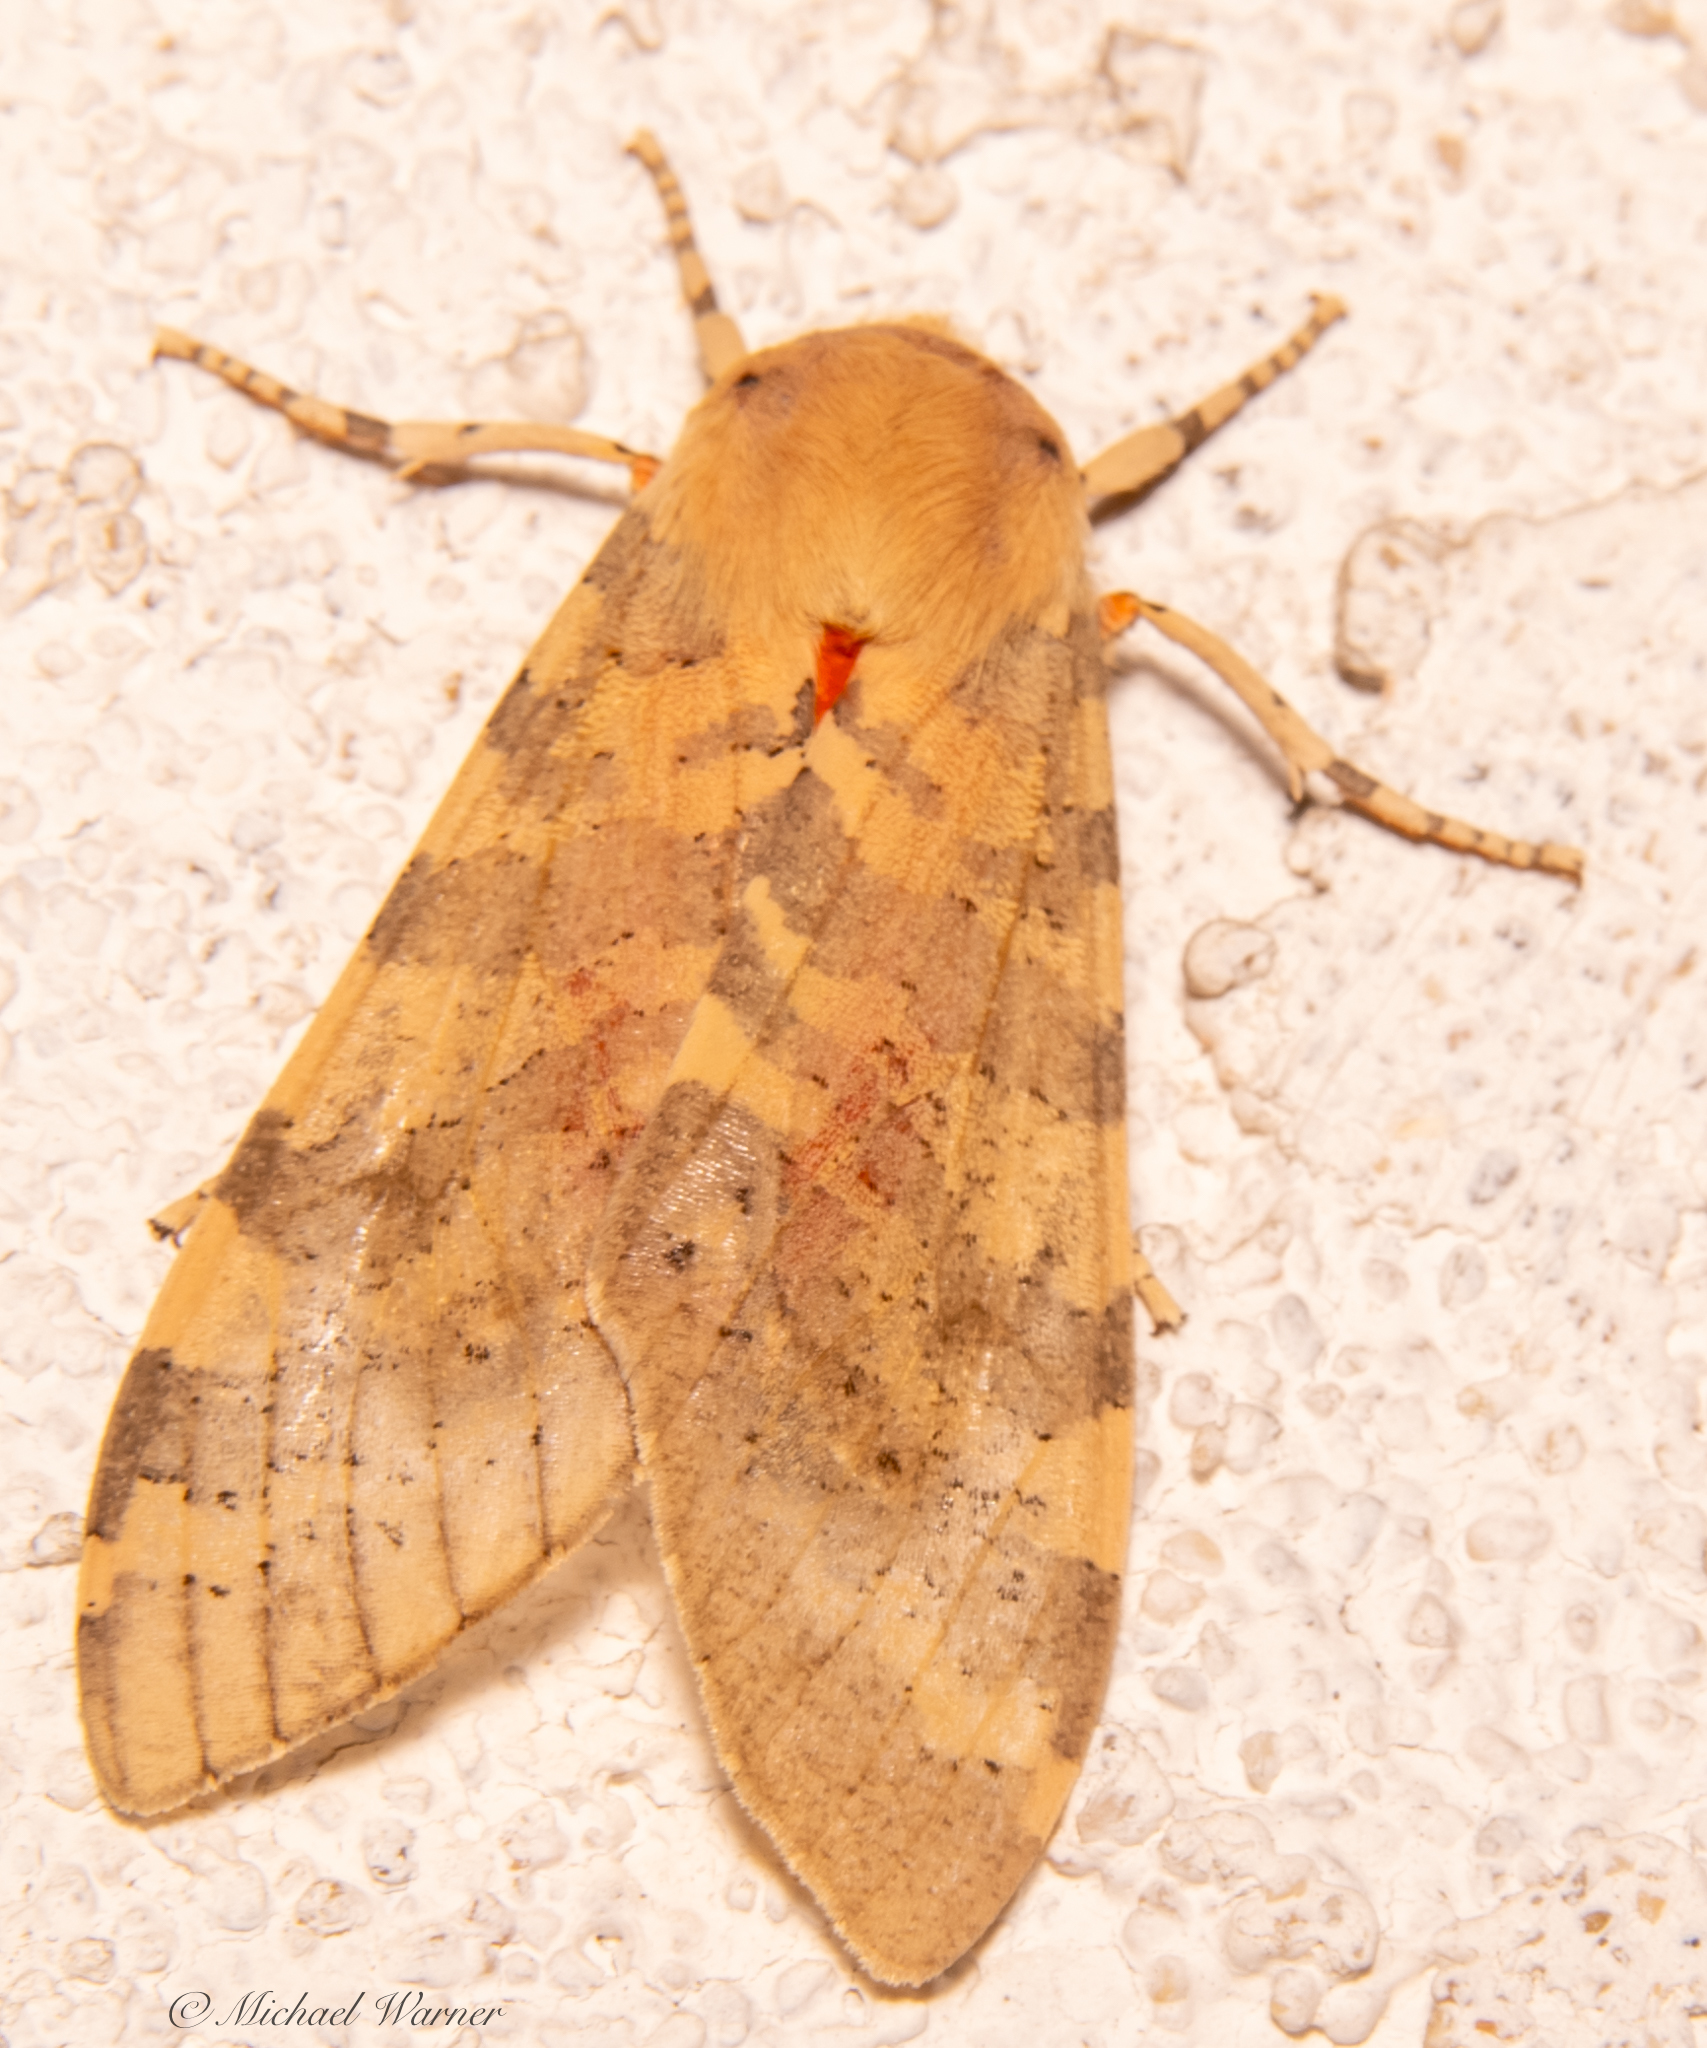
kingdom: Animalia
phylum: Arthropoda
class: Insecta
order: Lepidoptera
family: Erebidae
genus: Hemihyalea
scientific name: Hemihyalea edwardsii
